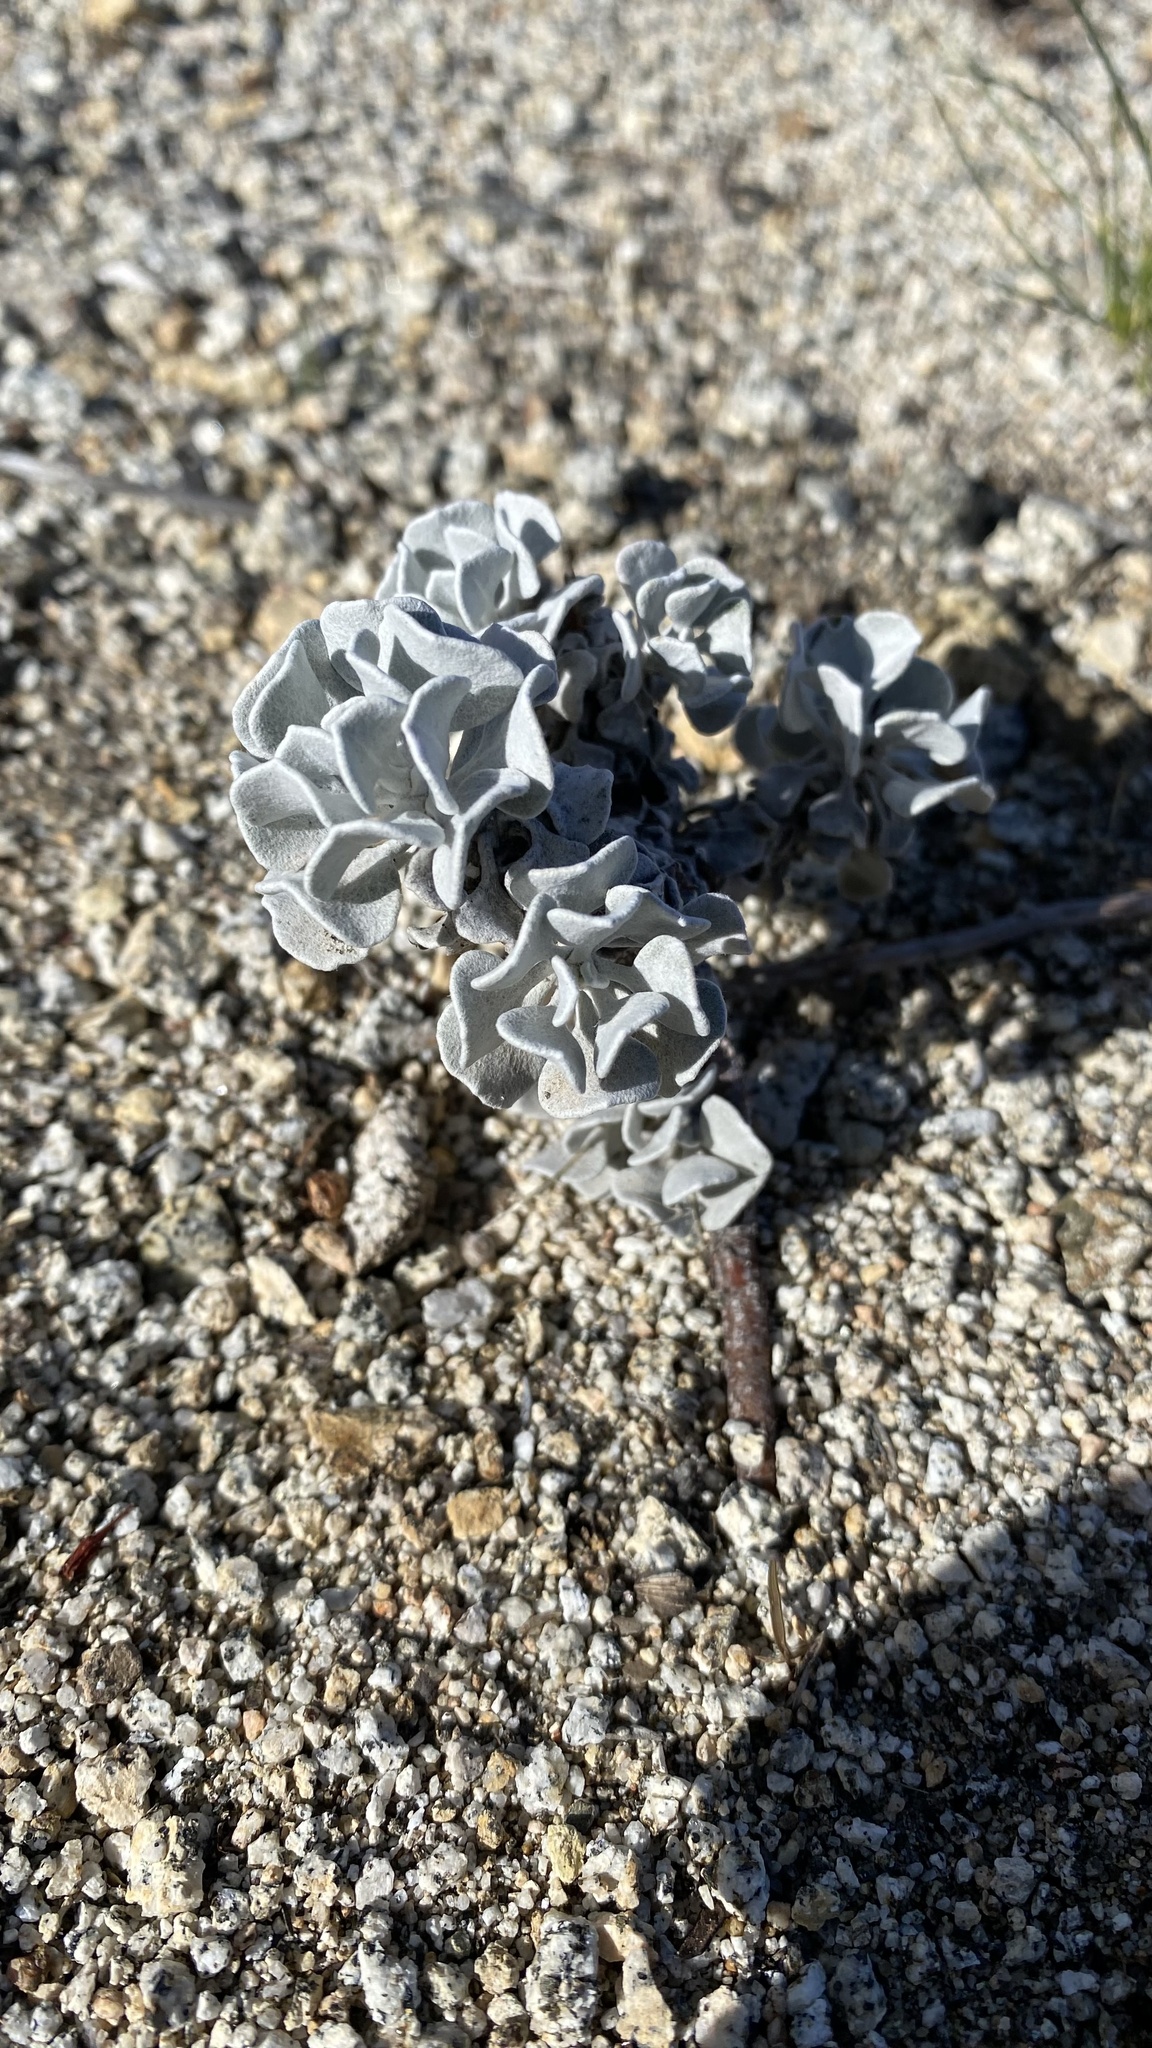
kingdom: Plantae
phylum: Tracheophyta
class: Magnoliopsida
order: Caryophyllales
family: Polygonaceae
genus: Eriogonum
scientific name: Eriogonum saxatile
